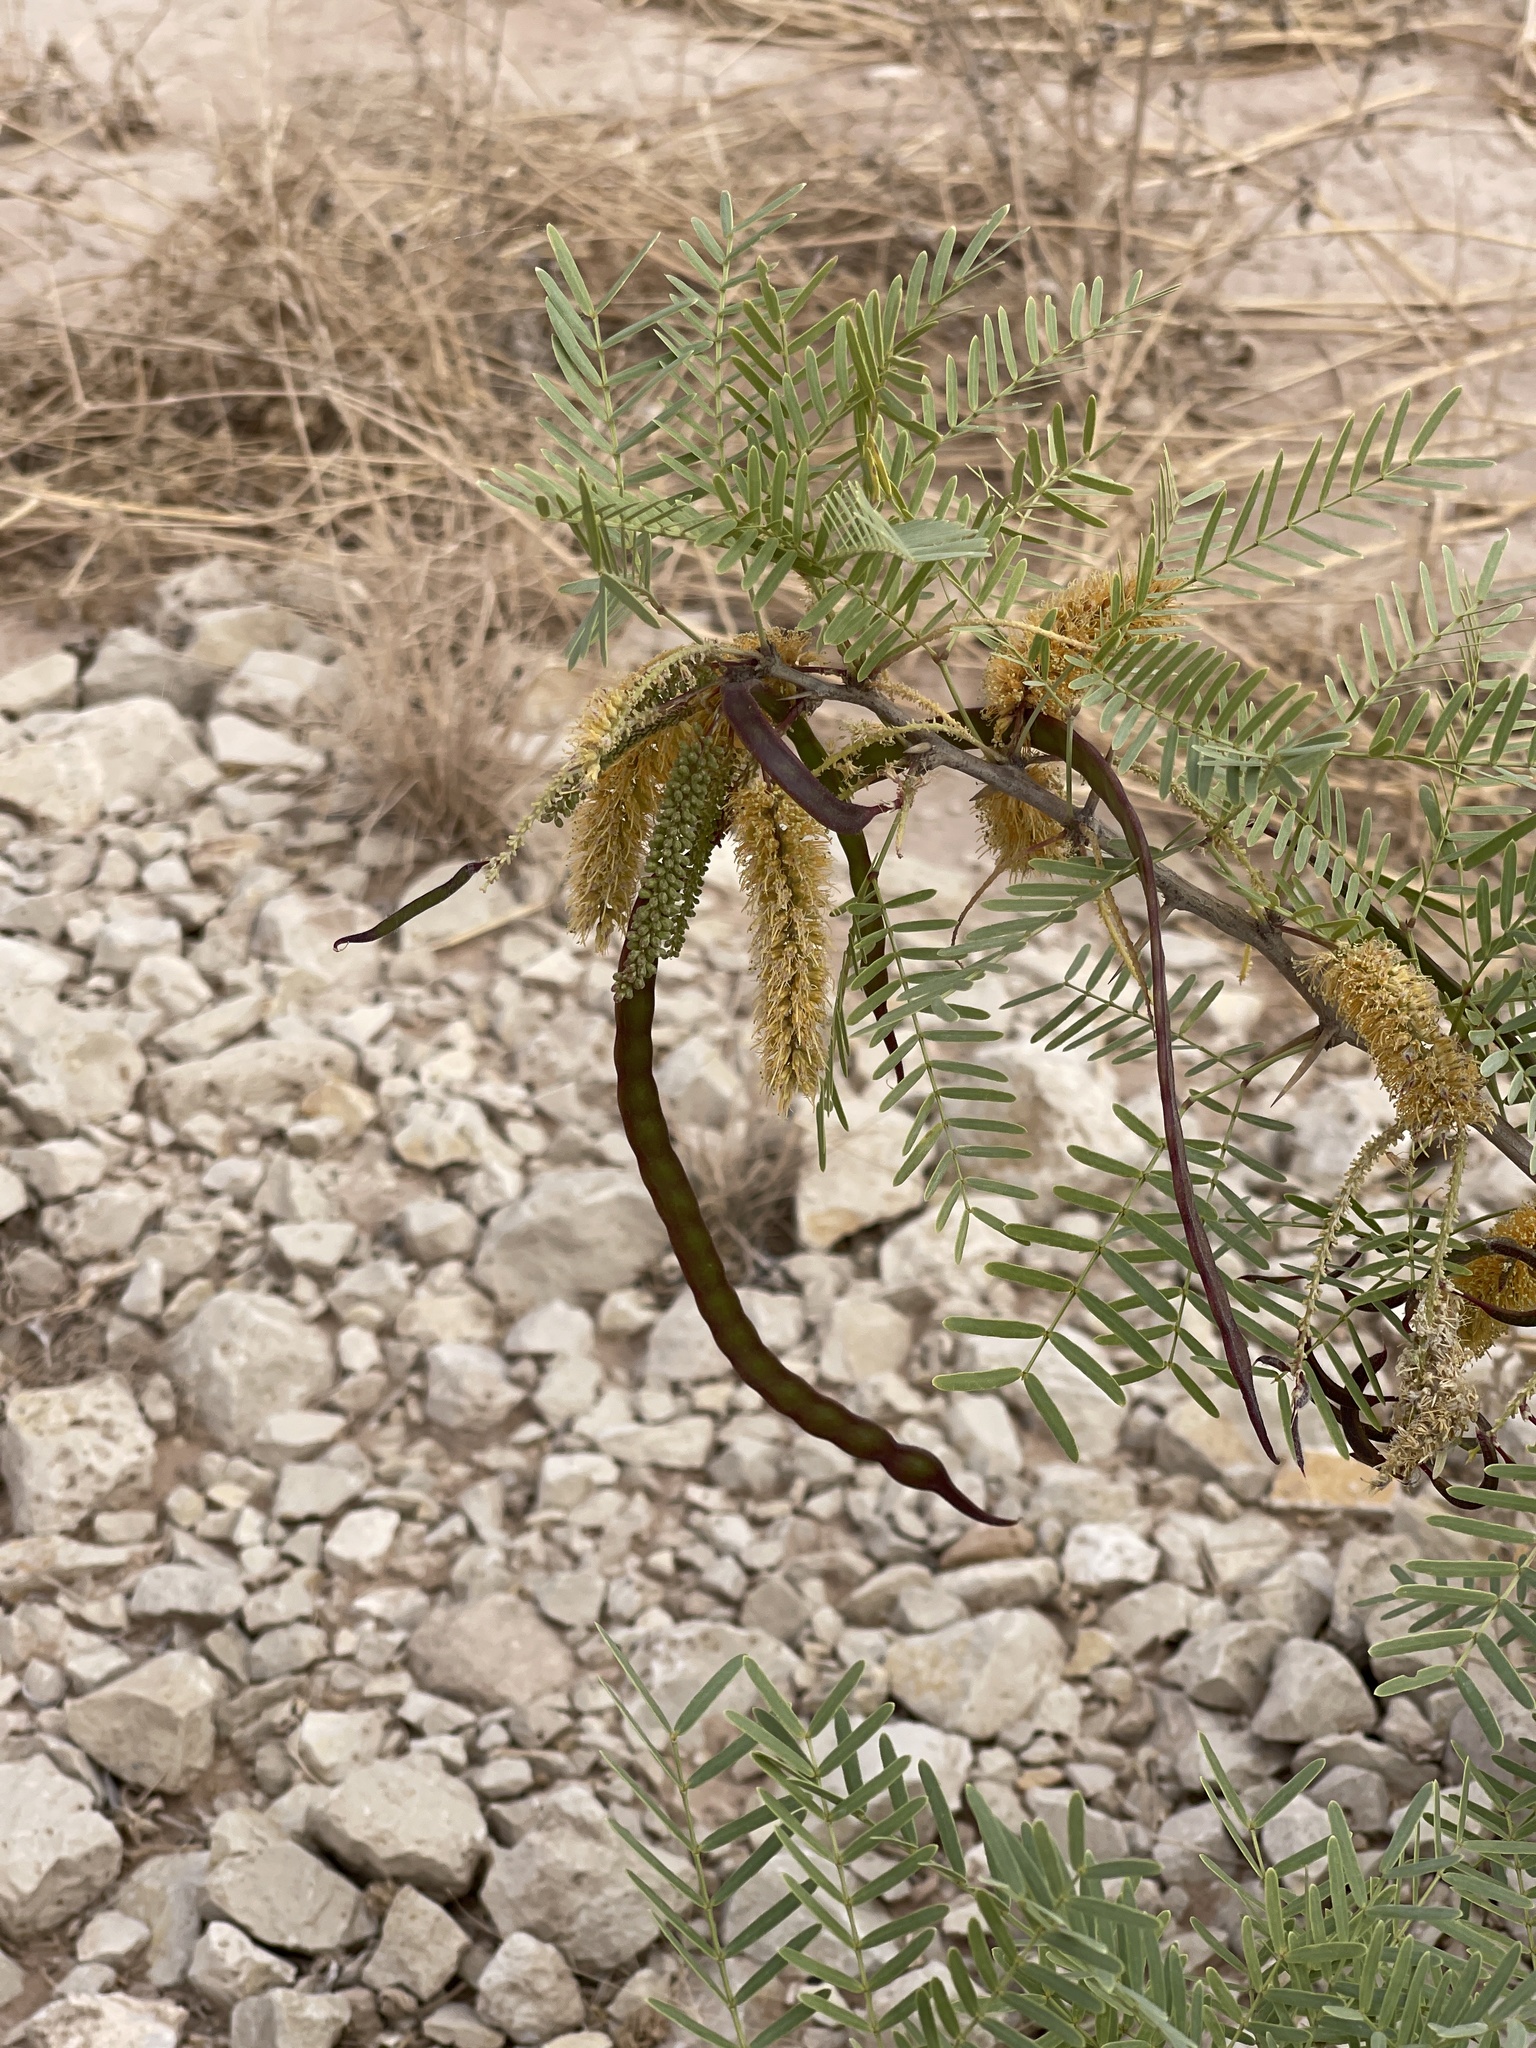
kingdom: Plantae
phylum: Tracheophyta
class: Magnoliopsida
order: Fabales
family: Fabaceae
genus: Prosopis
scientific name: Prosopis glandulosa
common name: Honey mesquite
